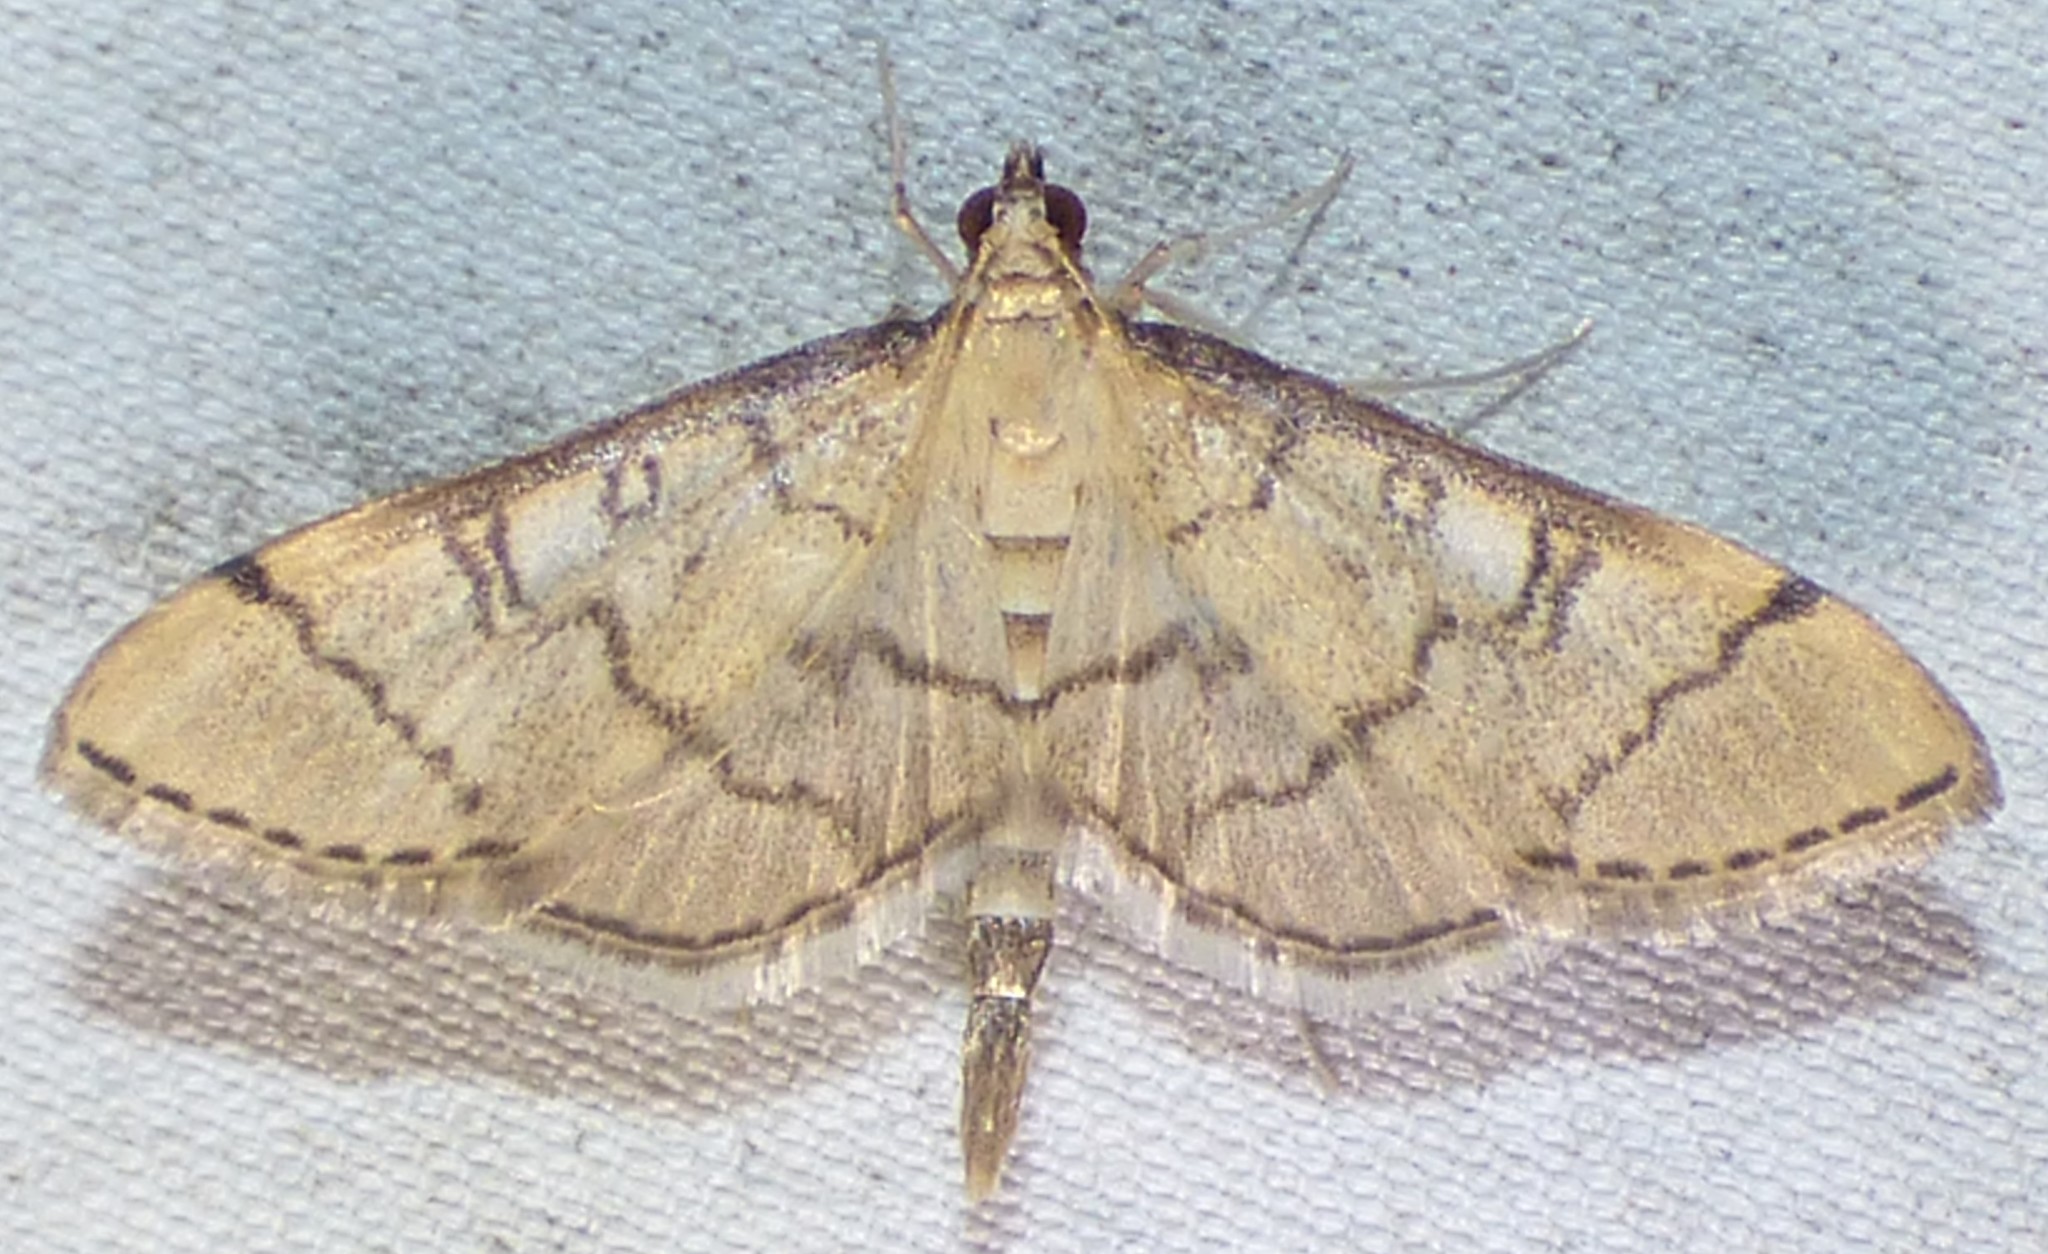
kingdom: Animalia
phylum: Arthropoda
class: Insecta
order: Lepidoptera
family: Crambidae
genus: Lamprosema
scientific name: Lamprosema Blepharomastix ranalis
